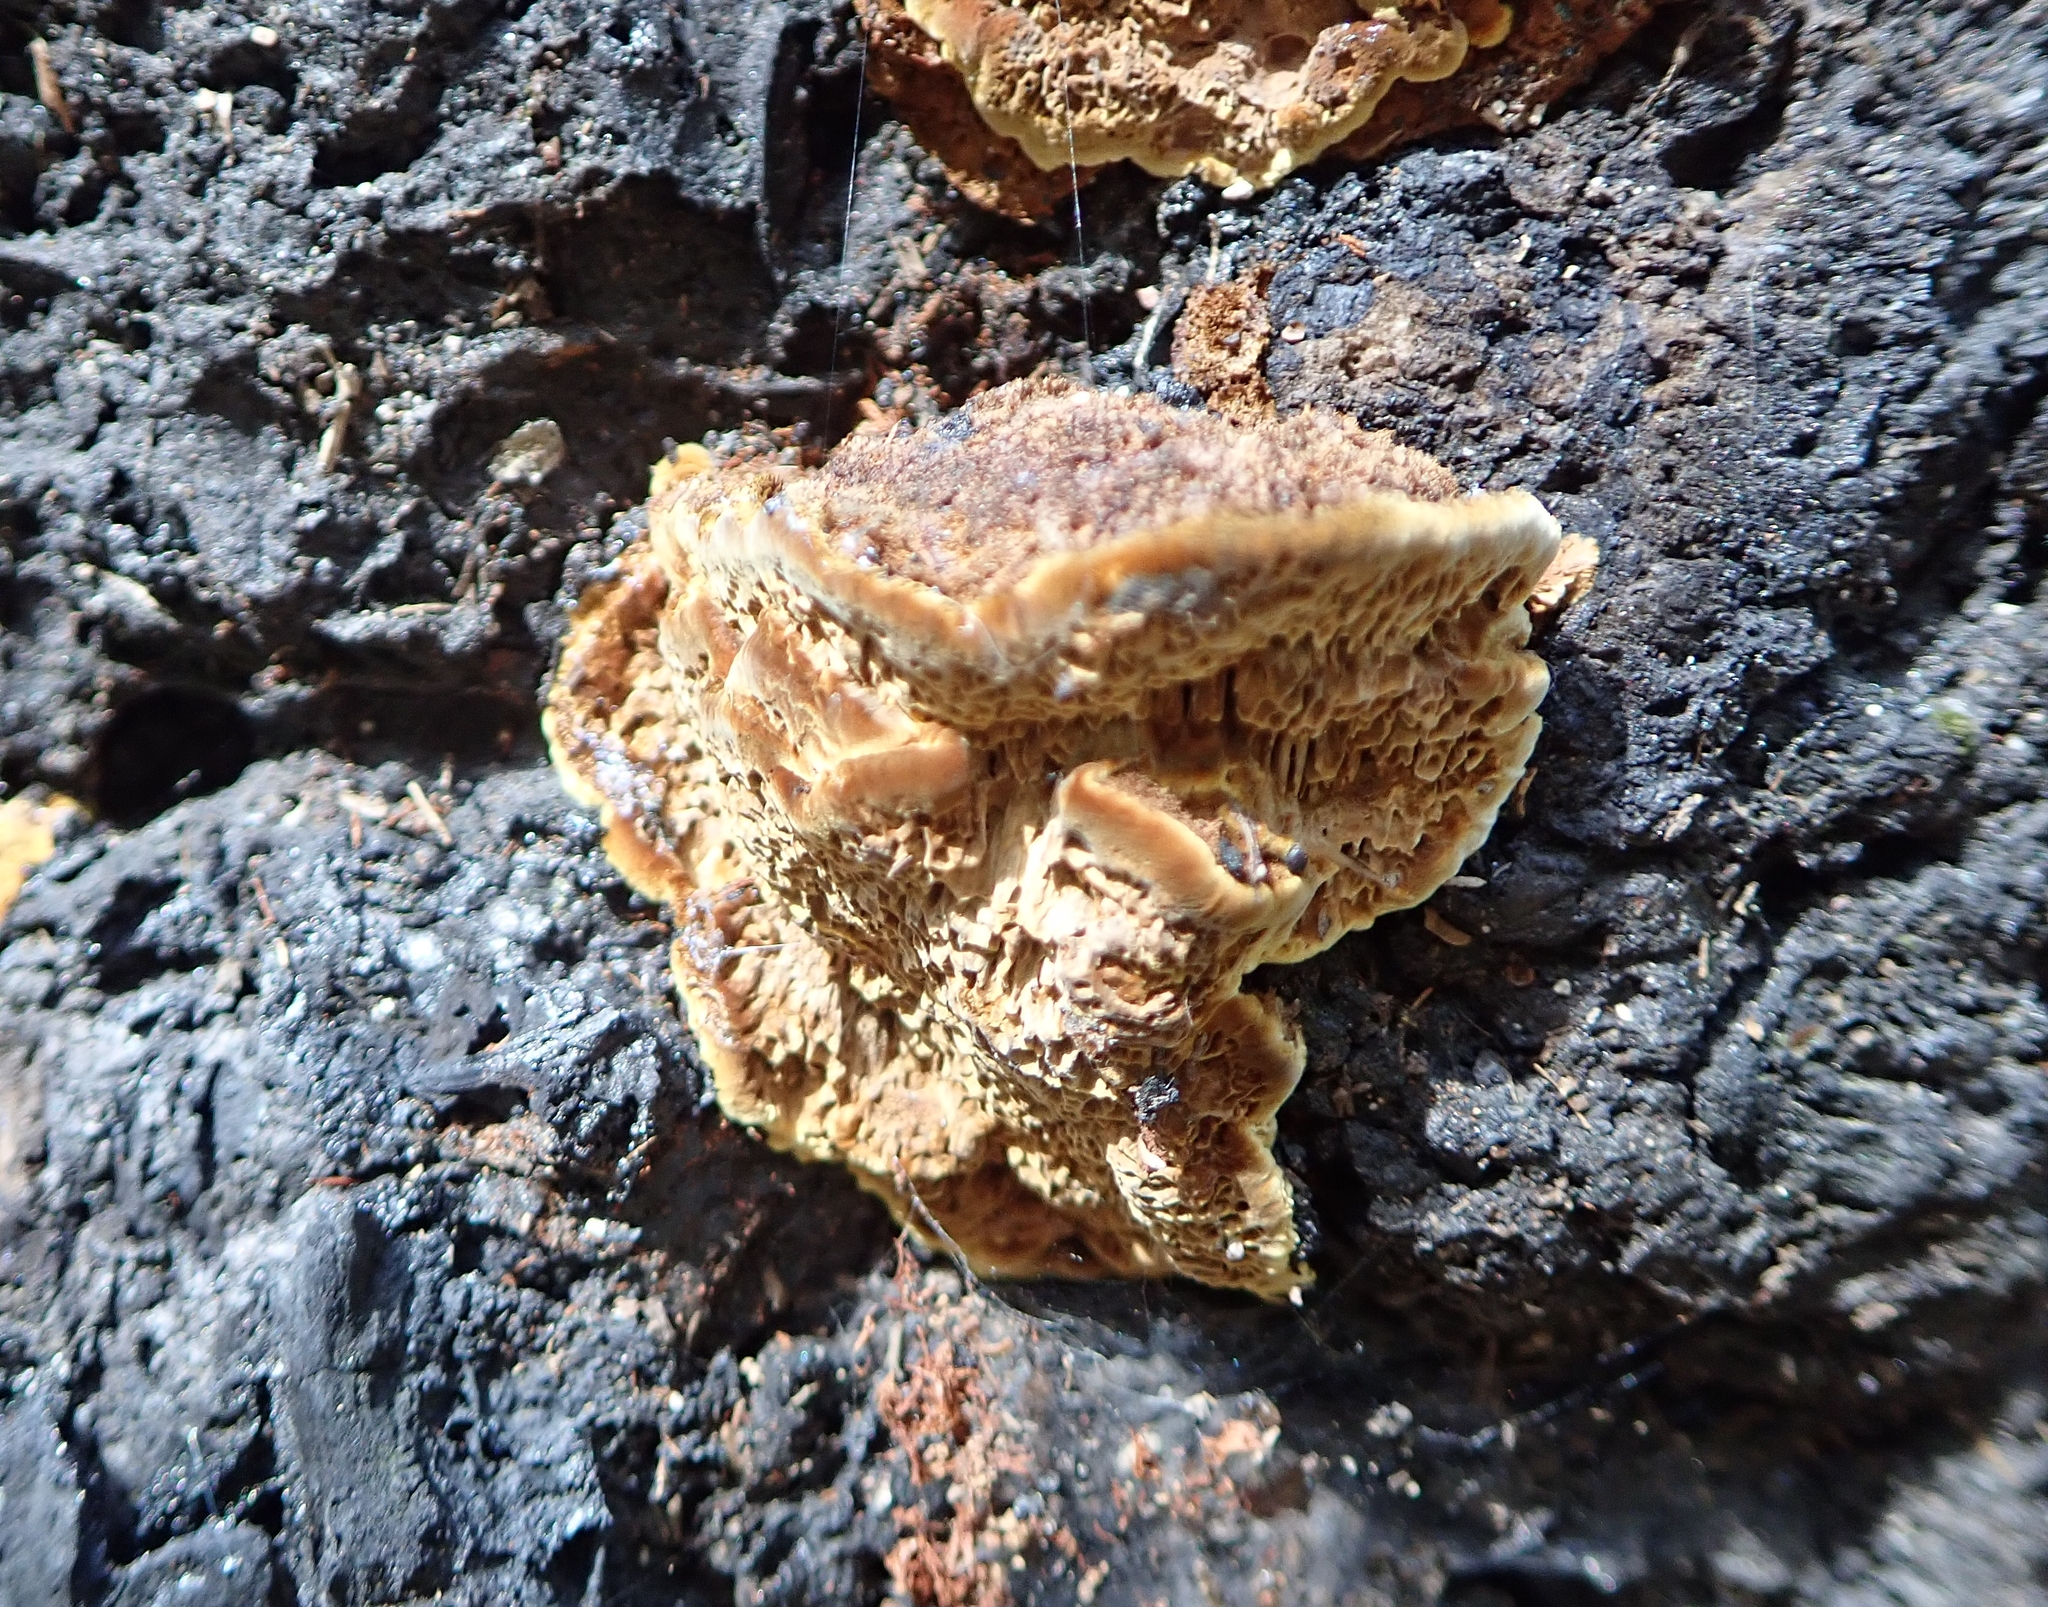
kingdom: Fungi
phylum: Basidiomycota
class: Agaricomycetes
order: Hymenochaetales
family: Hymenochaetaceae
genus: Porodaedalea
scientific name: Porodaedalea pini
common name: Pine bracket
